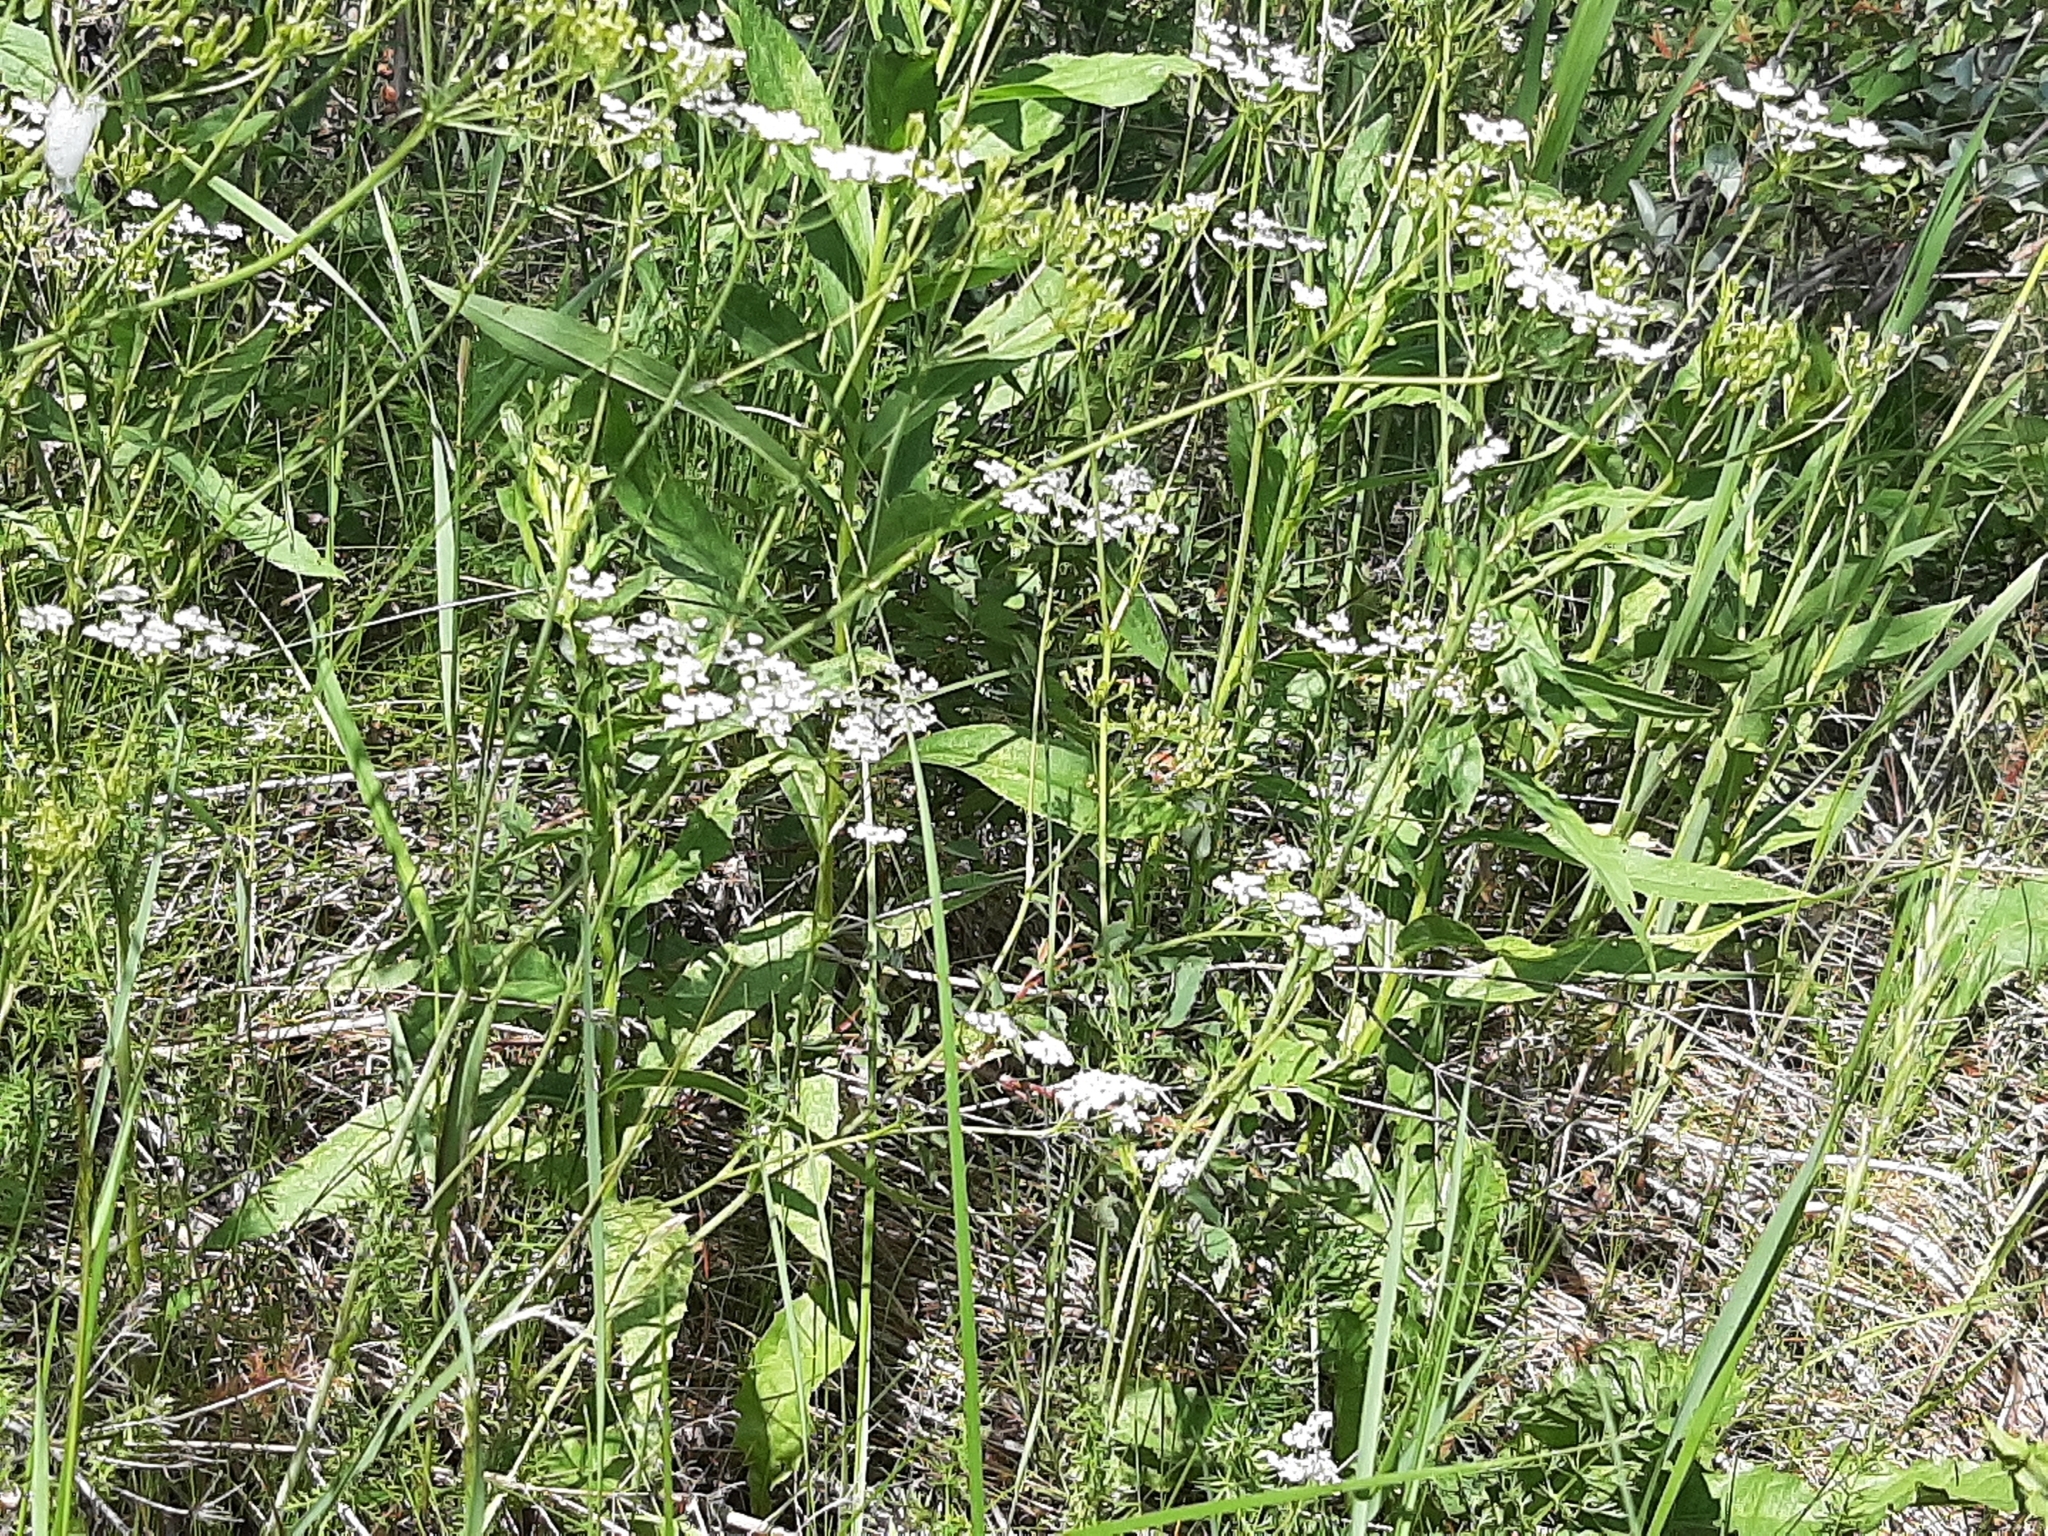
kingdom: Plantae
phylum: Tracheophyta
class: Magnoliopsida
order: Apiales
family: Apiaceae
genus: Carum
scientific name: Carum carvi
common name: Caraway
